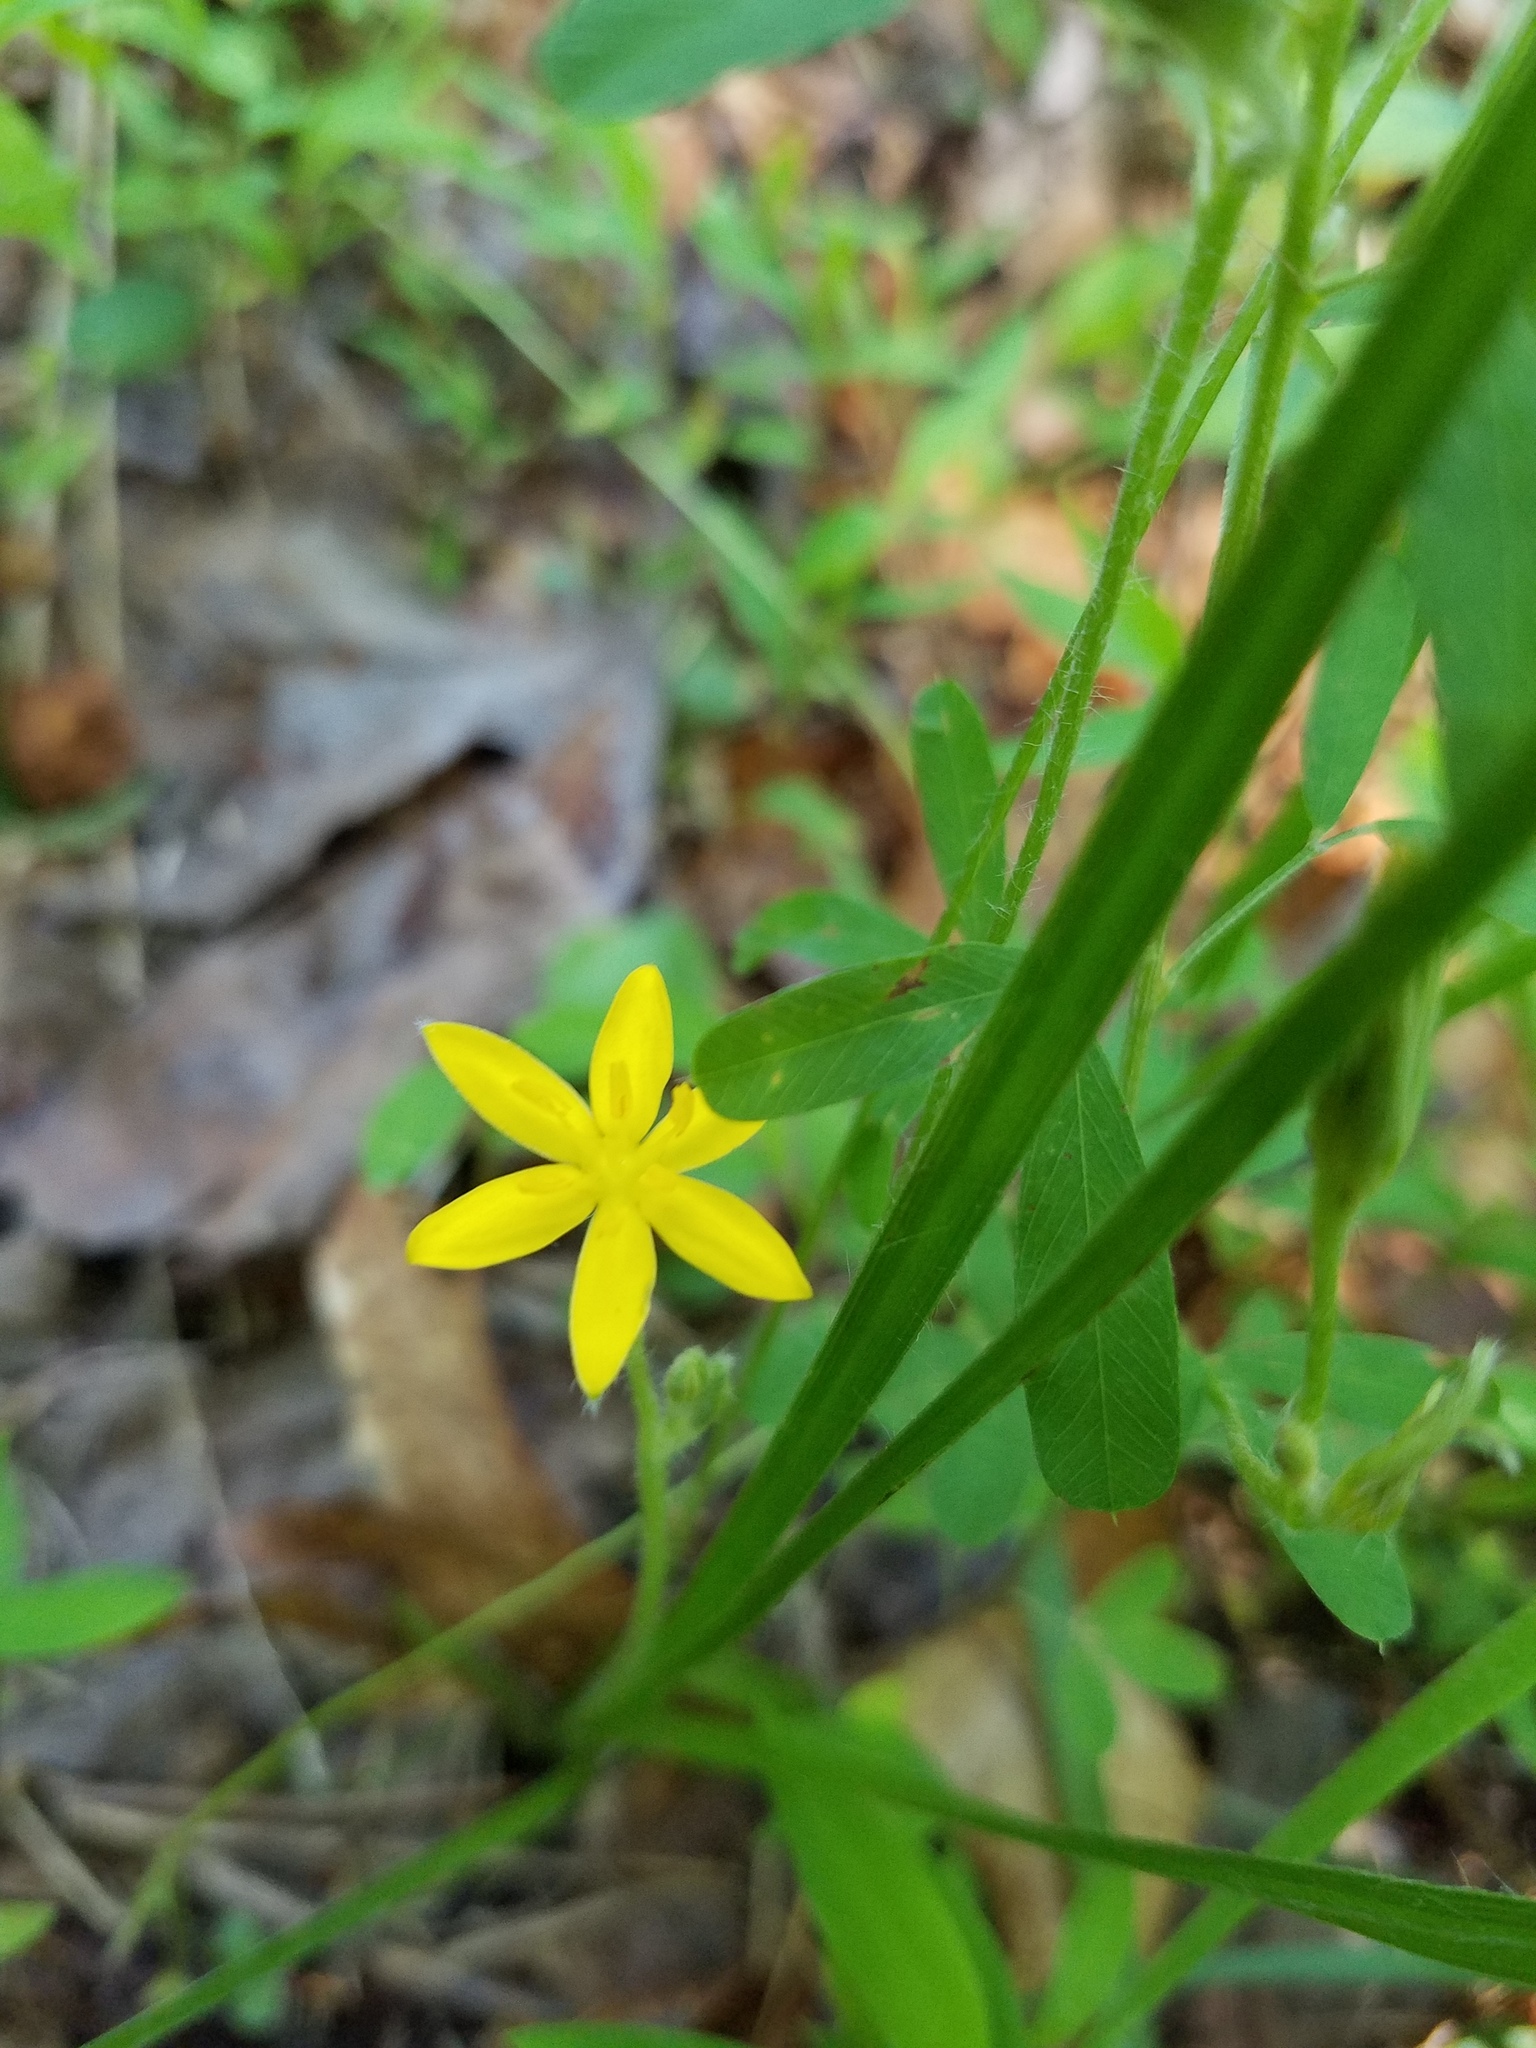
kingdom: Plantae
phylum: Tracheophyta
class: Liliopsida
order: Asparagales
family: Hypoxidaceae
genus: Hypoxis
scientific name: Hypoxis hirsuta
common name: Common goldstar
